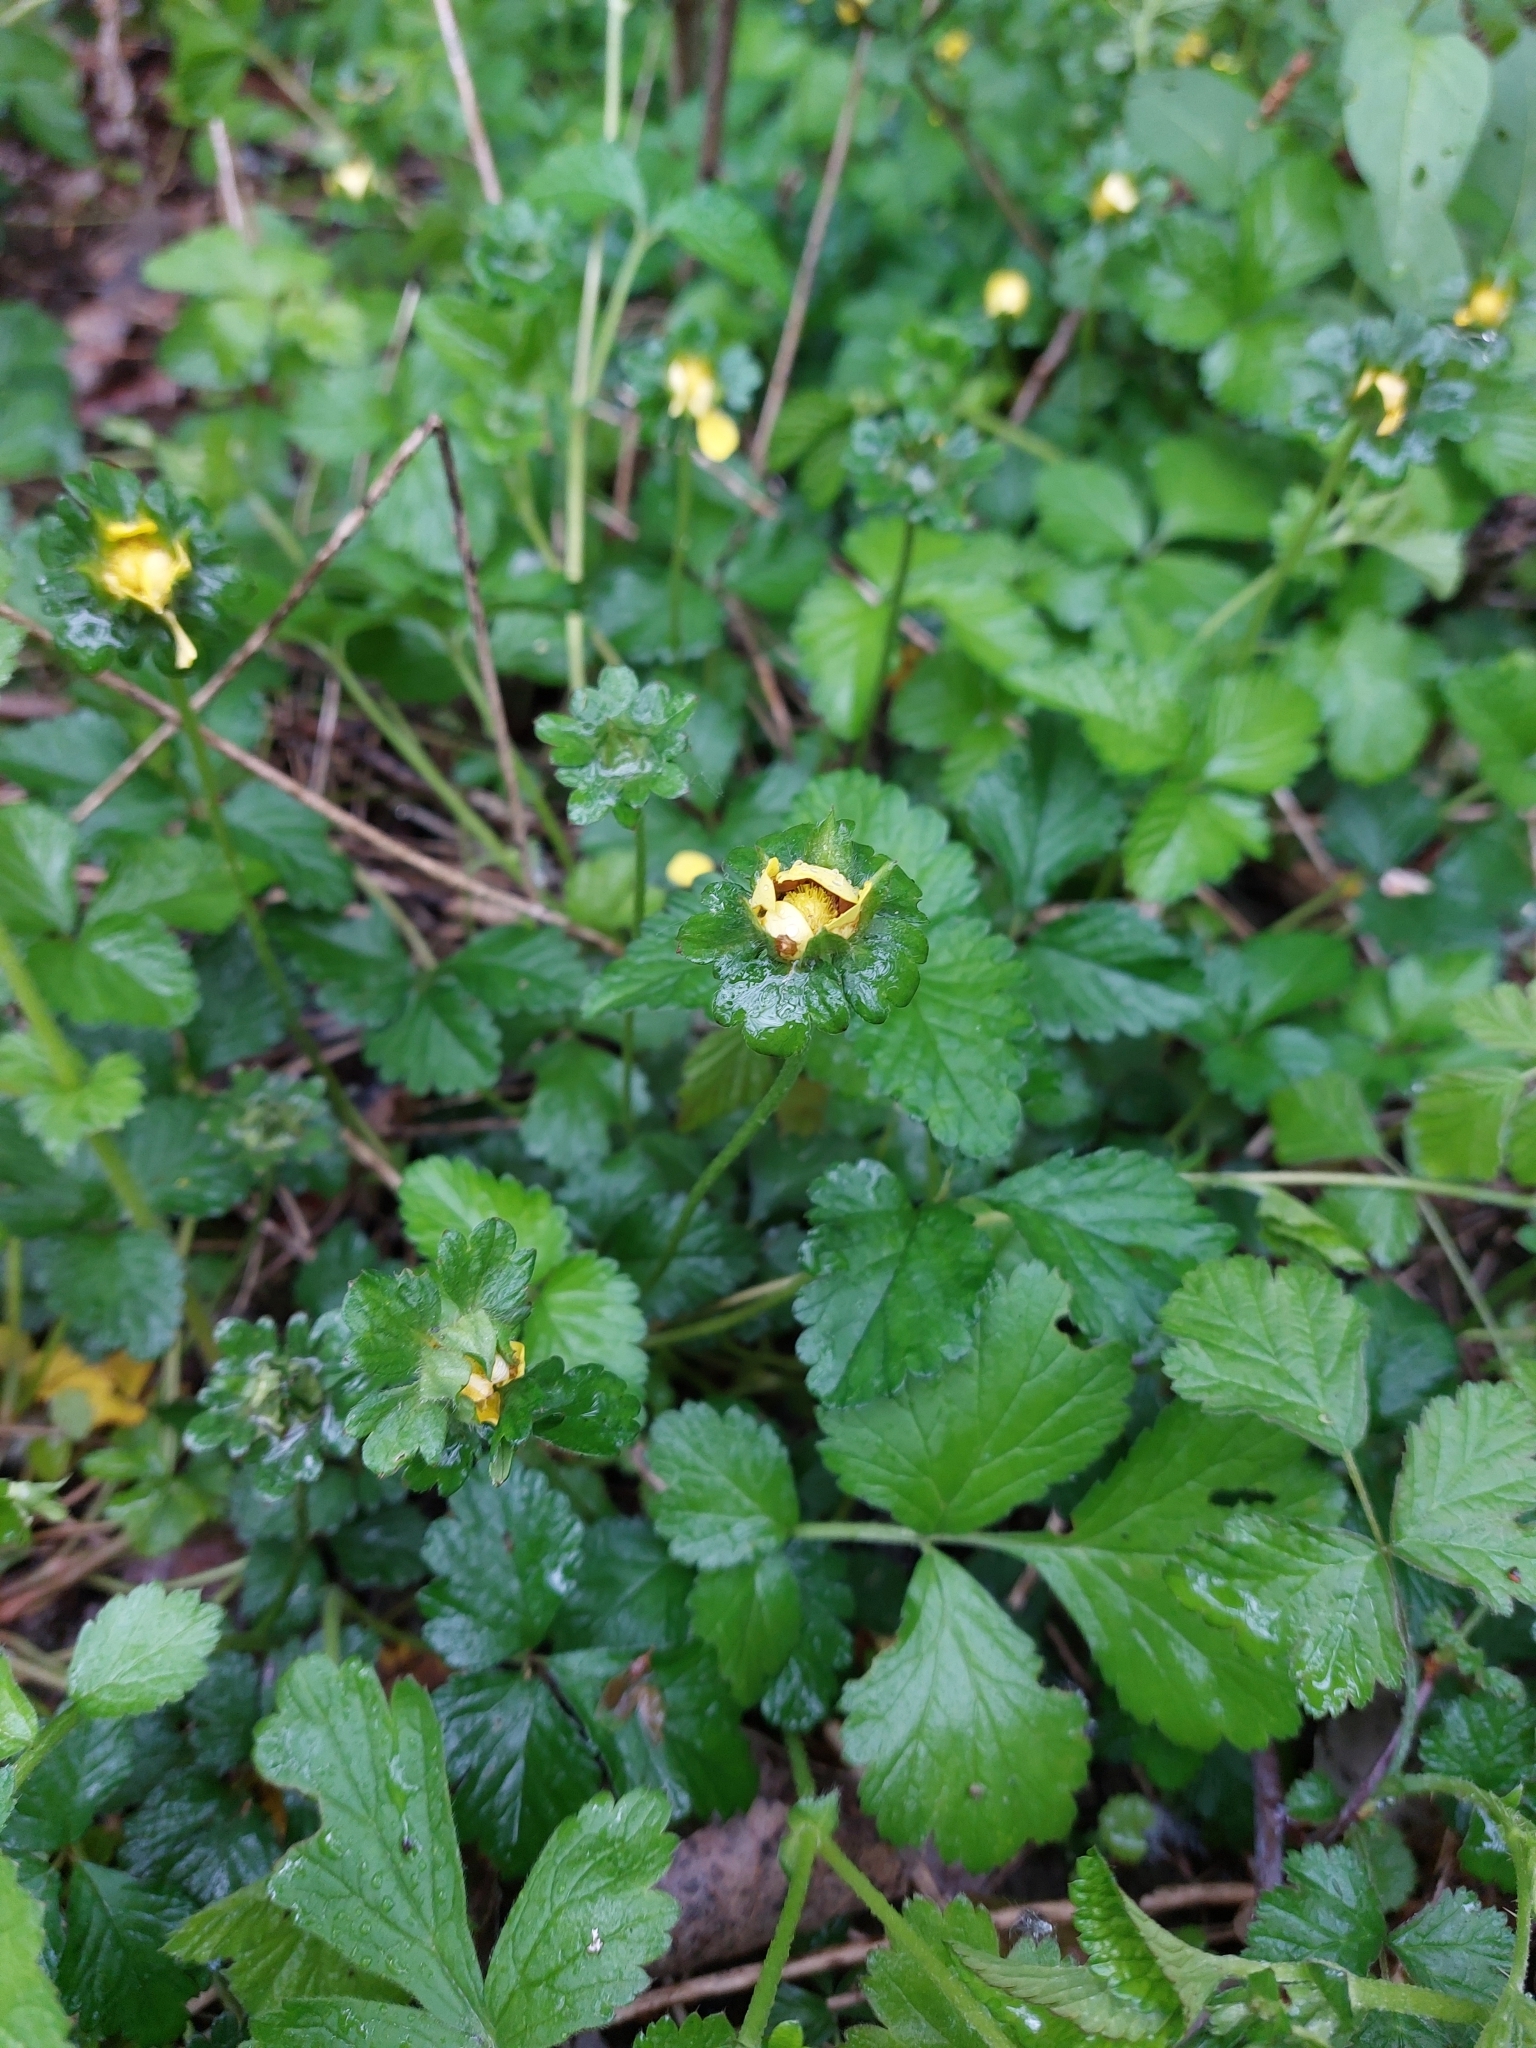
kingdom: Plantae
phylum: Tracheophyta
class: Magnoliopsida
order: Rosales
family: Rosaceae
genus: Potentilla
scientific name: Potentilla indica
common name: Yellow-flowered strawberry
